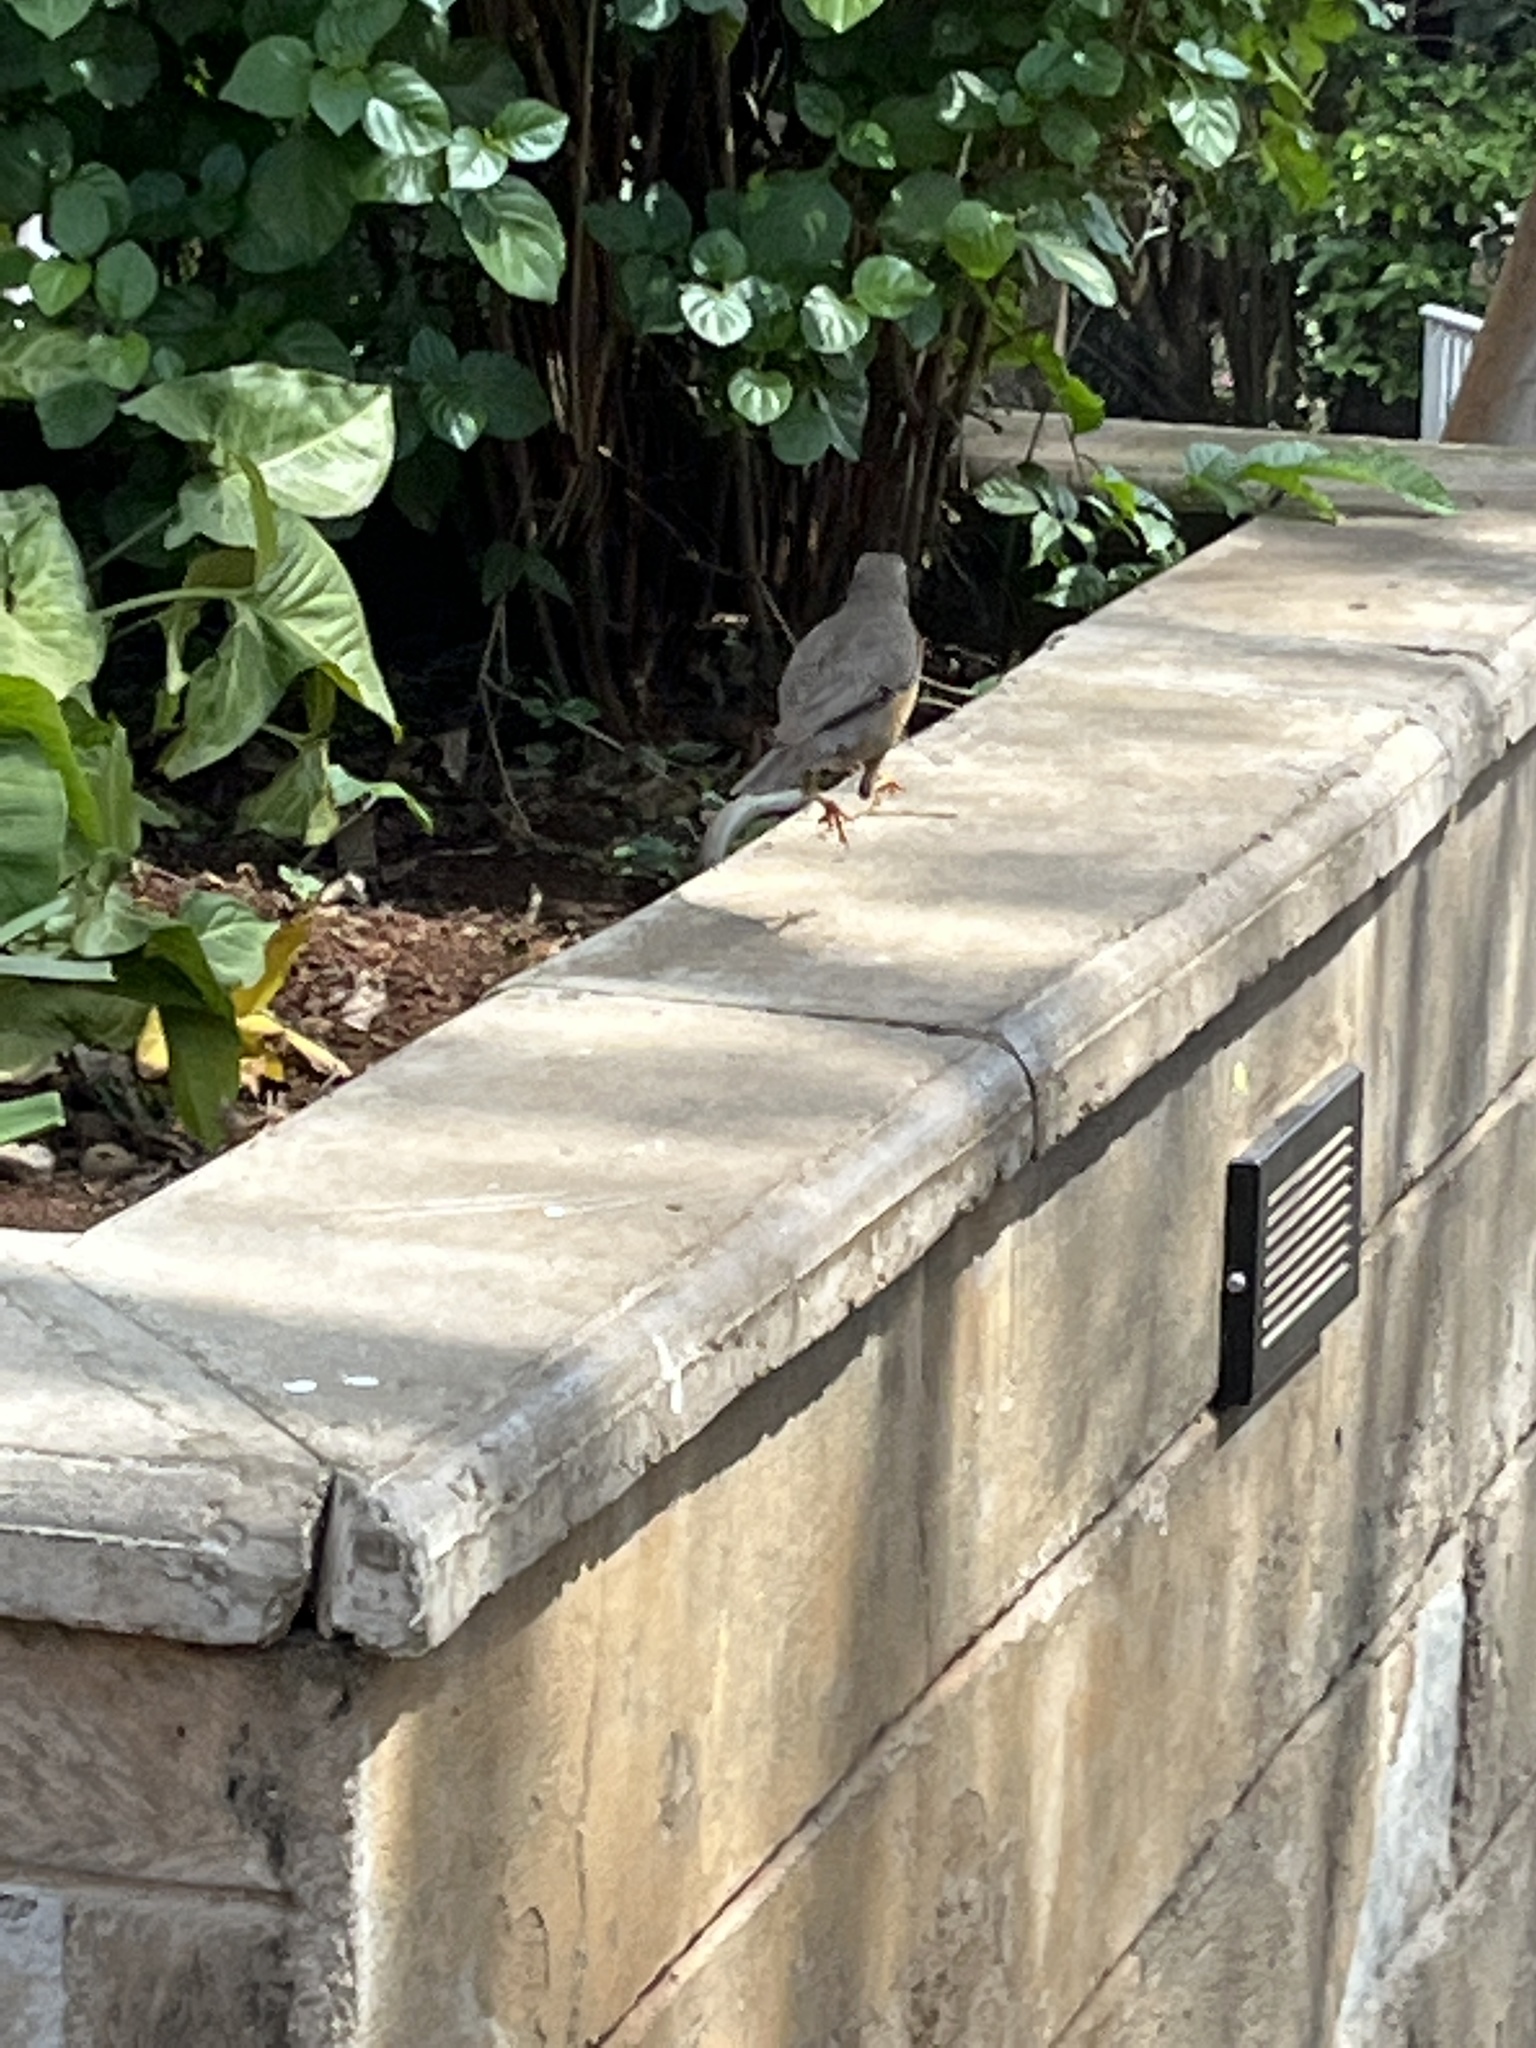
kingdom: Animalia
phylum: Chordata
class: Aves
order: Passeriformes
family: Turdidae
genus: Turdus
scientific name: Turdus abyssinicus
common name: Abyssinian thrush
